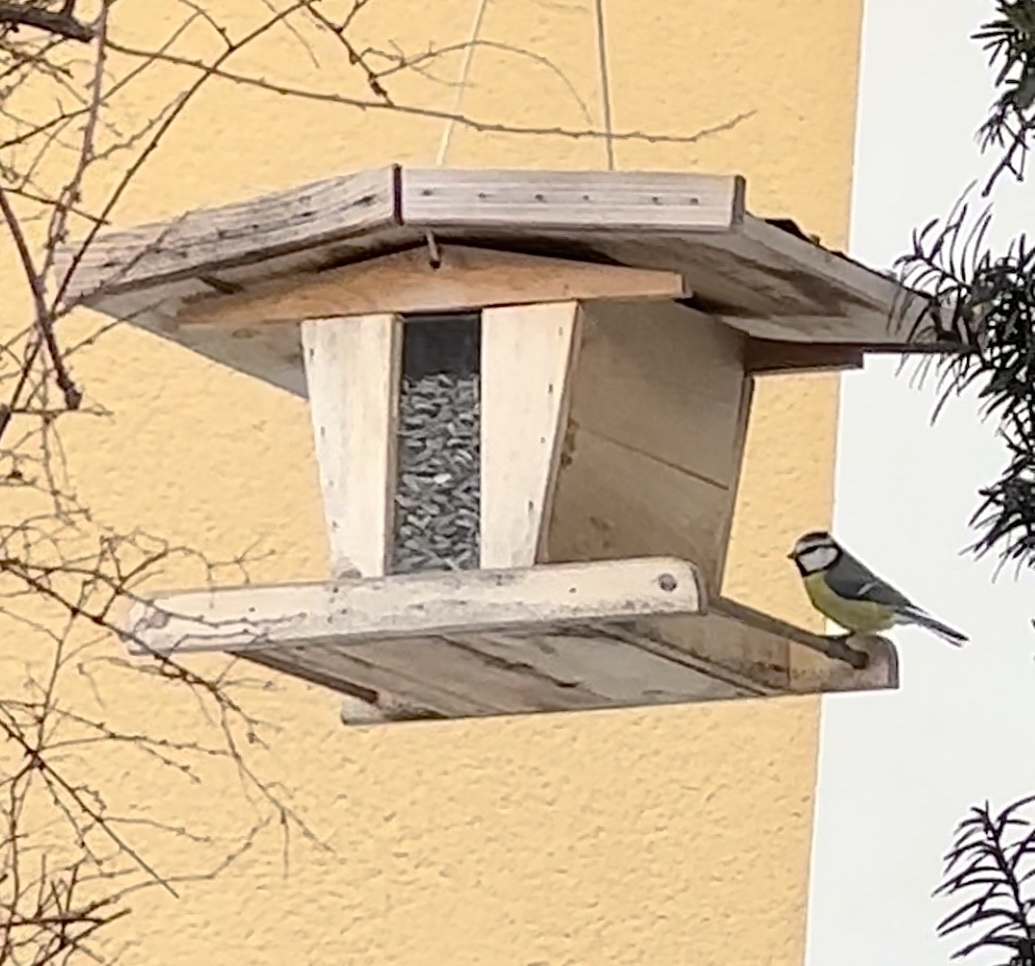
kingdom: Animalia
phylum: Chordata
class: Aves
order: Passeriformes
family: Paridae
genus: Cyanistes
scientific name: Cyanistes caeruleus
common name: Eurasian blue tit
